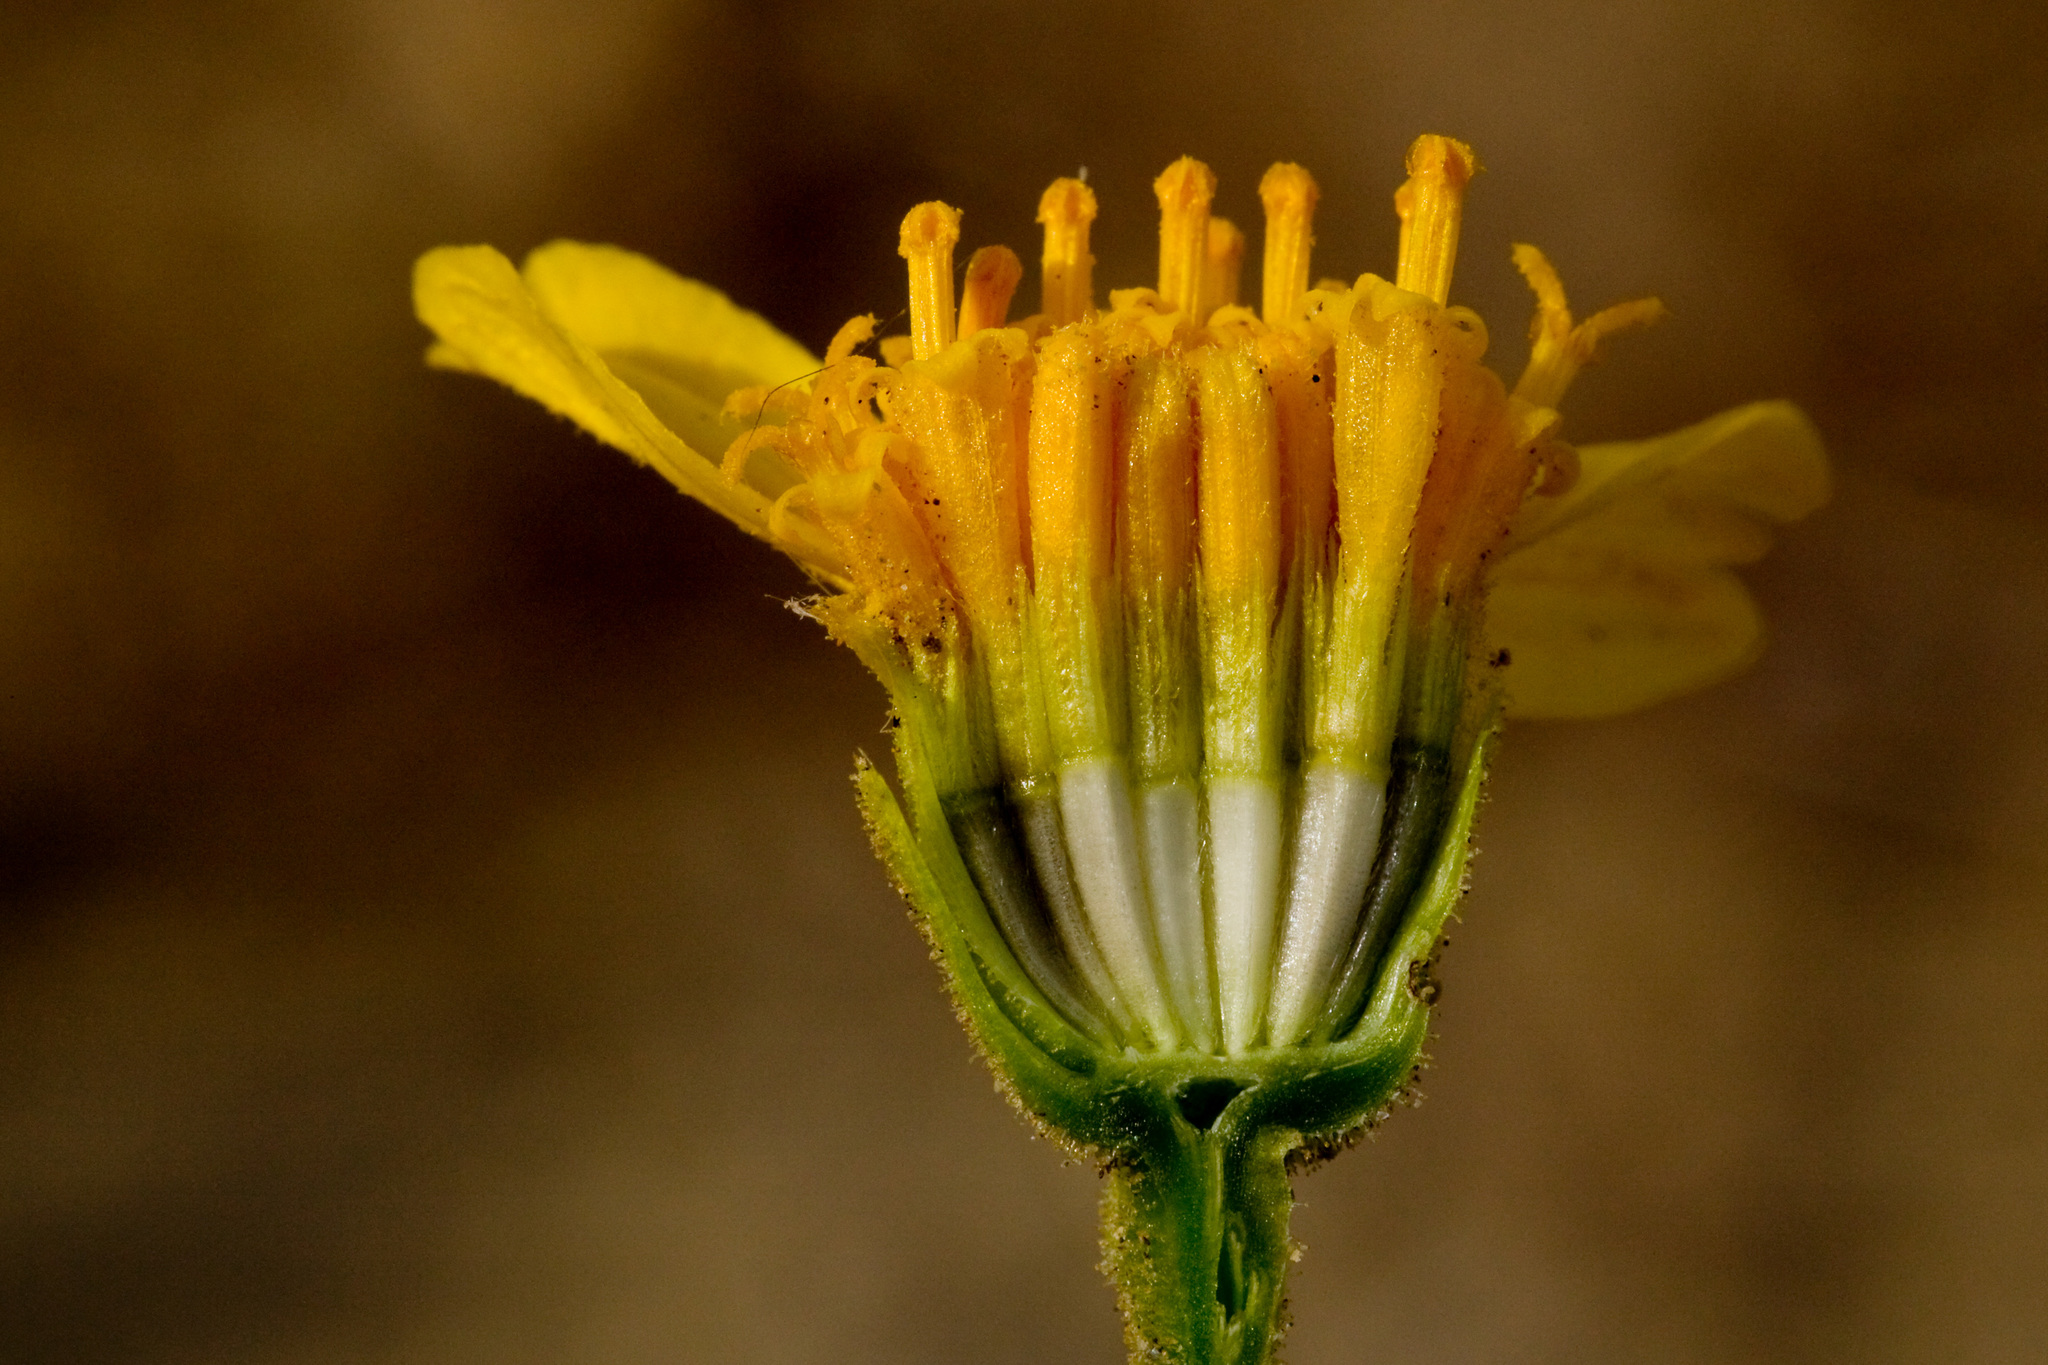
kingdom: Plantae
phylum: Tracheophyta
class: Magnoliopsida
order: Asterales
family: Asteraceae
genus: Platyschkuhria
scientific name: Platyschkuhria integrifolia
